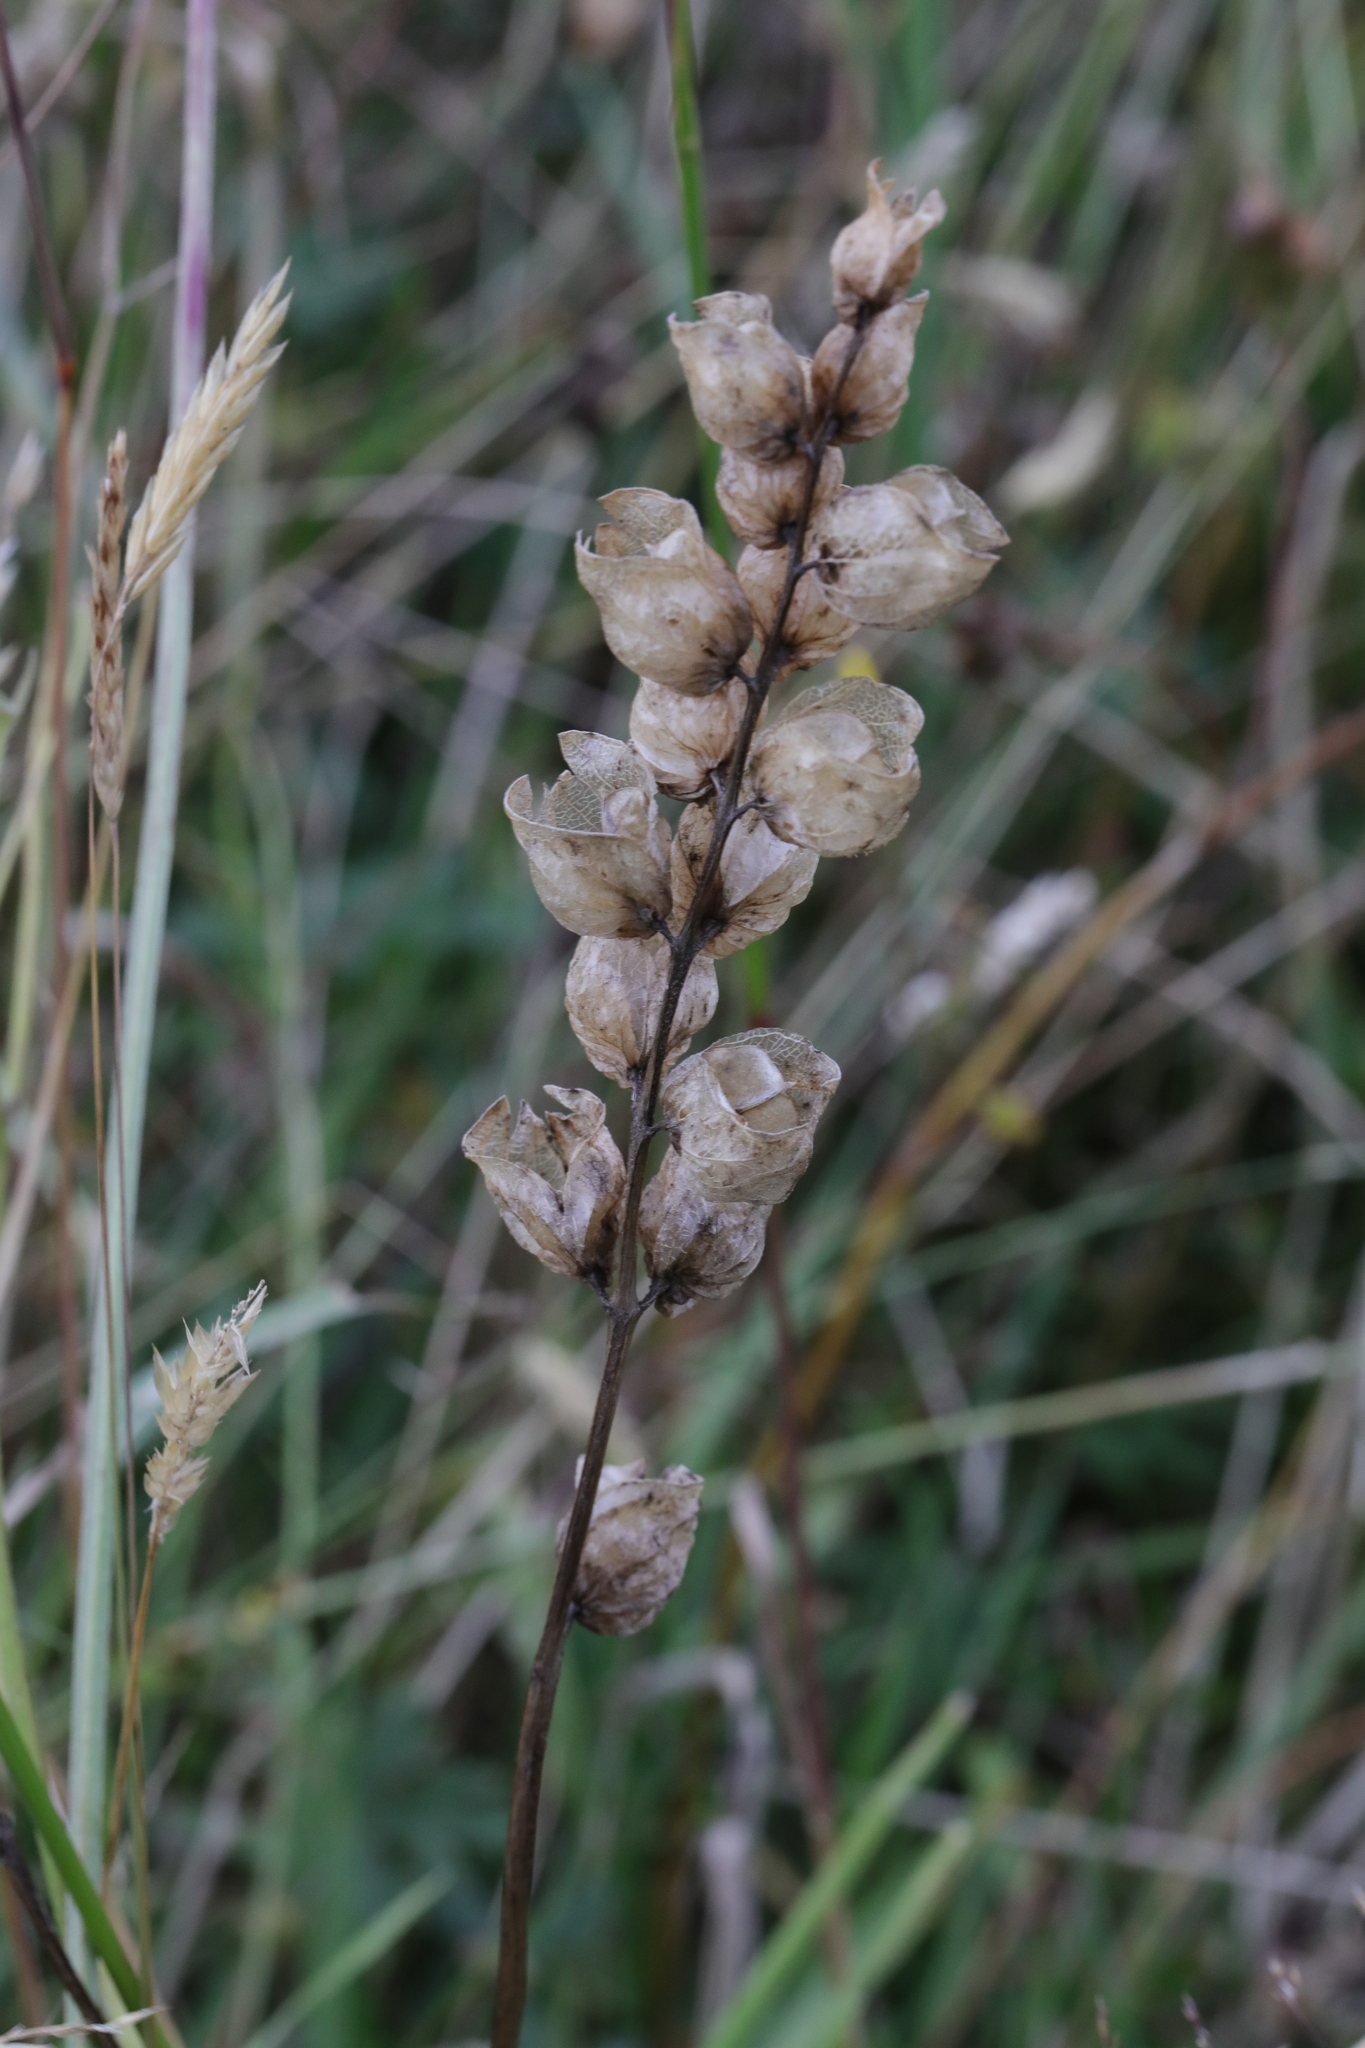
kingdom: Plantae
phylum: Tracheophyta
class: Magnoliopsida
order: Lamiales
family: Orobanchaceae
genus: Rhinanthus
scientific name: Rhinanthus minor
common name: Yellow-rattle
